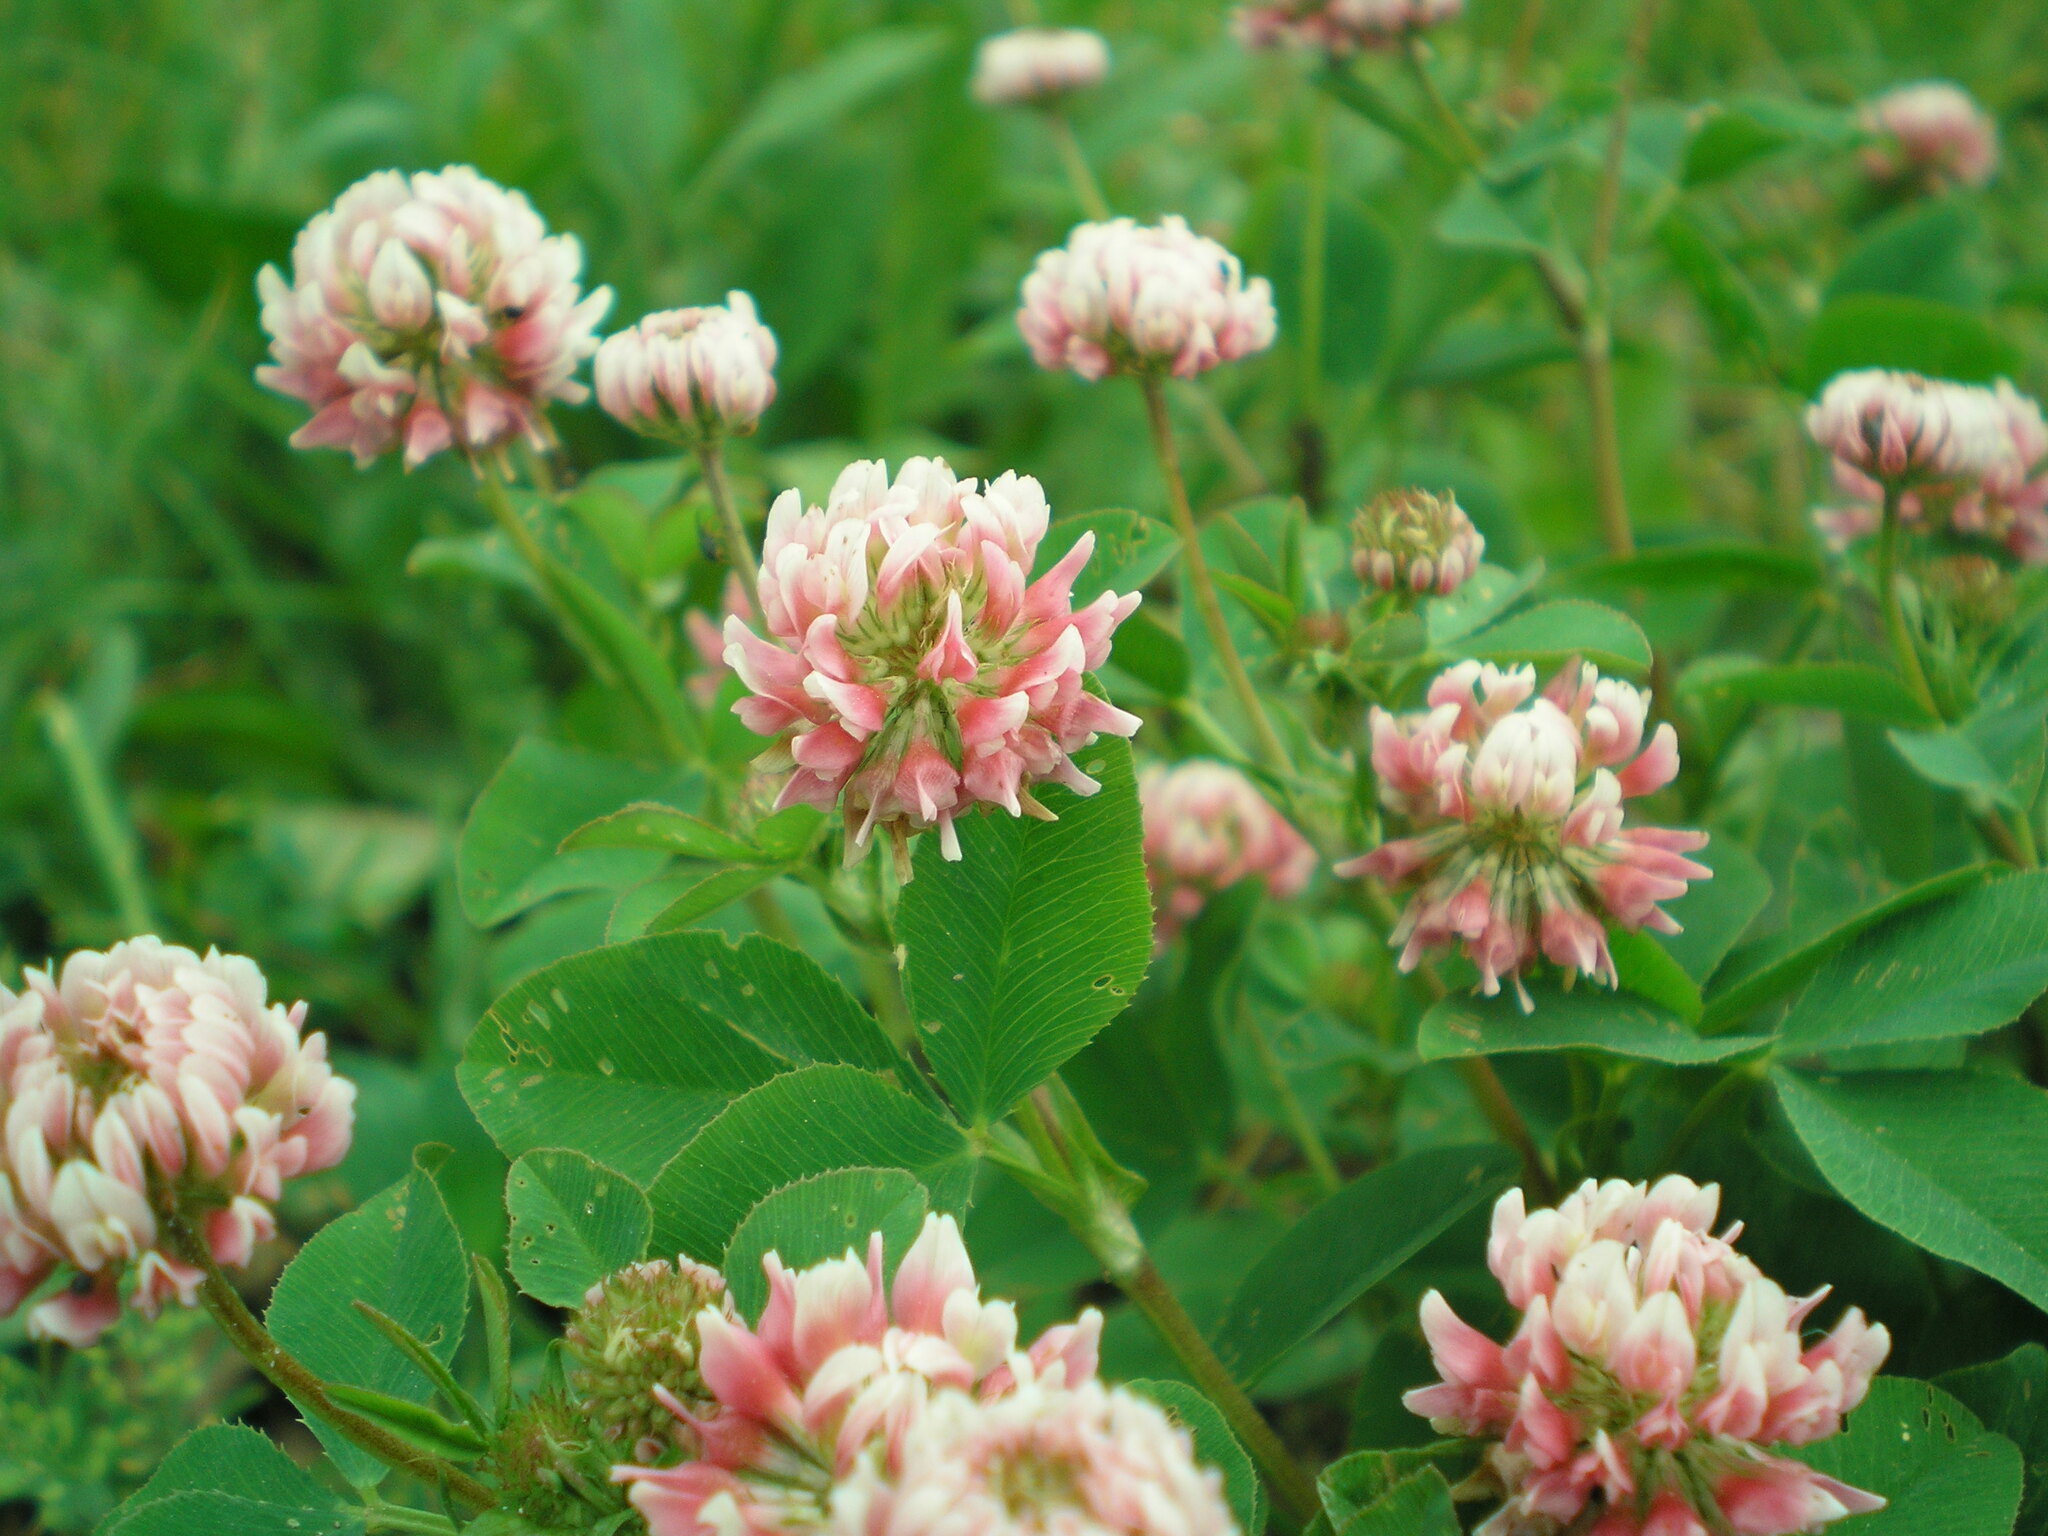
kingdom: Plantae
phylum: Tracheophyta
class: Magnoliopsida
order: Fabales
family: Fabaceae
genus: Trifolium
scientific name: Trifolium hybridum
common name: Alsike clover
